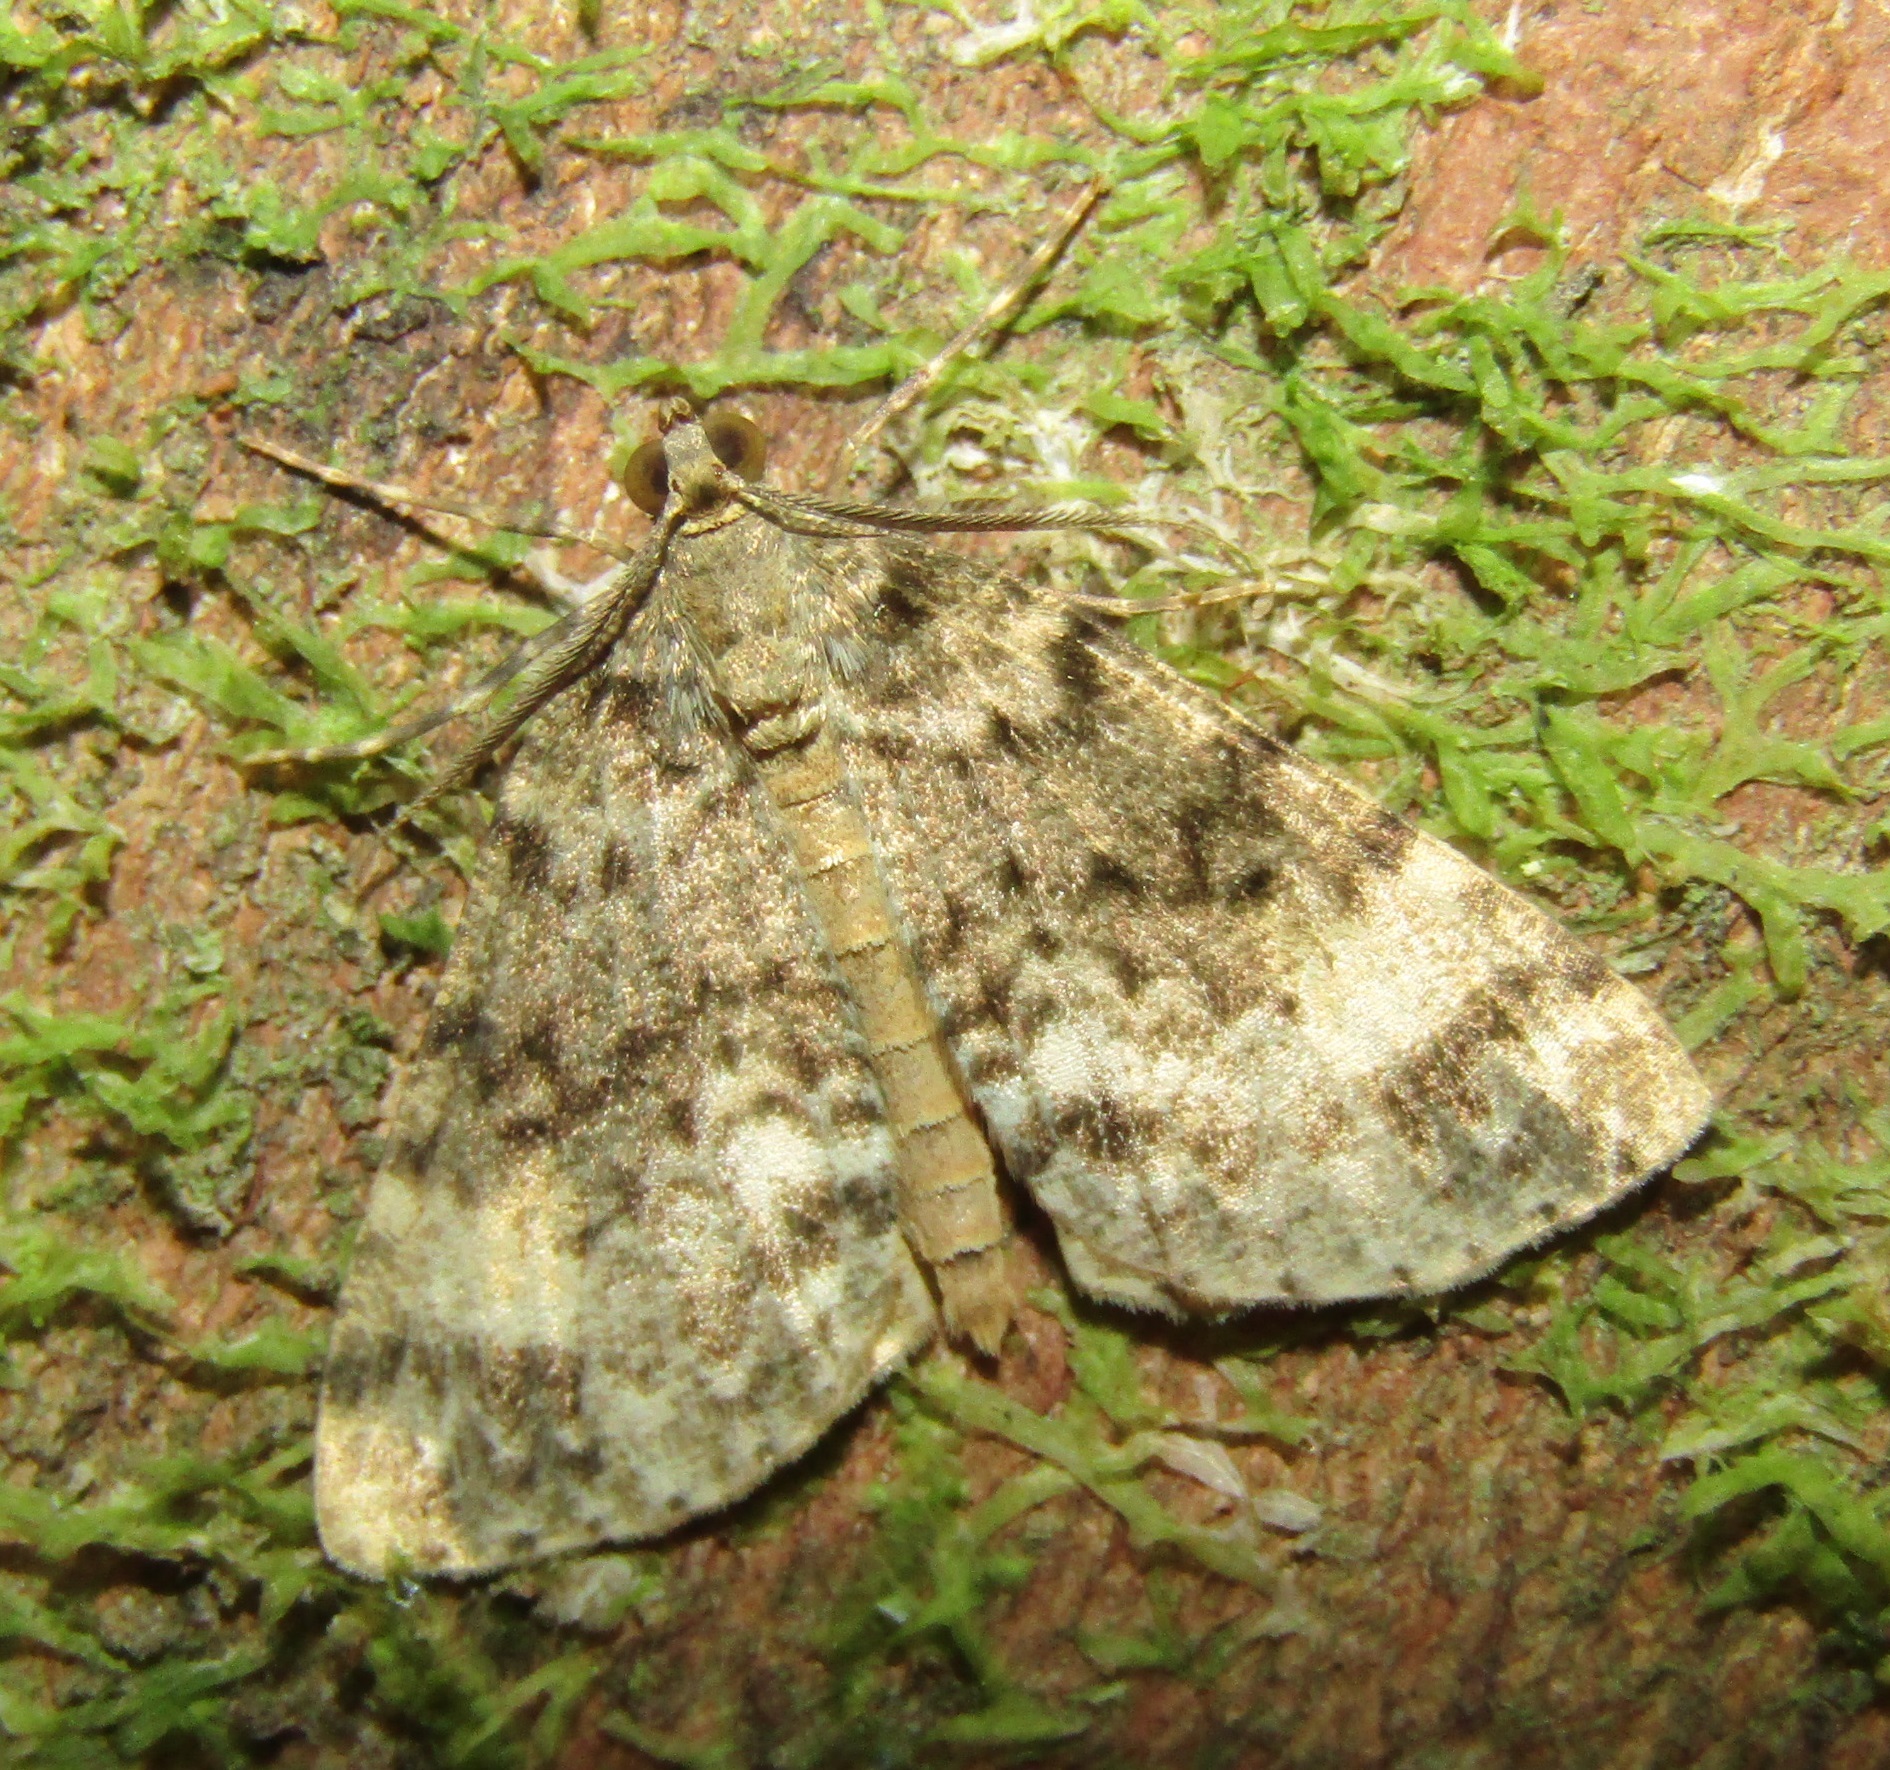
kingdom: Animalia
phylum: Arthropoda
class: Insecta
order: Lepidoptera
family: Geometridae
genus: Pseudocoremia
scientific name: Pseudocoremia indistincta
